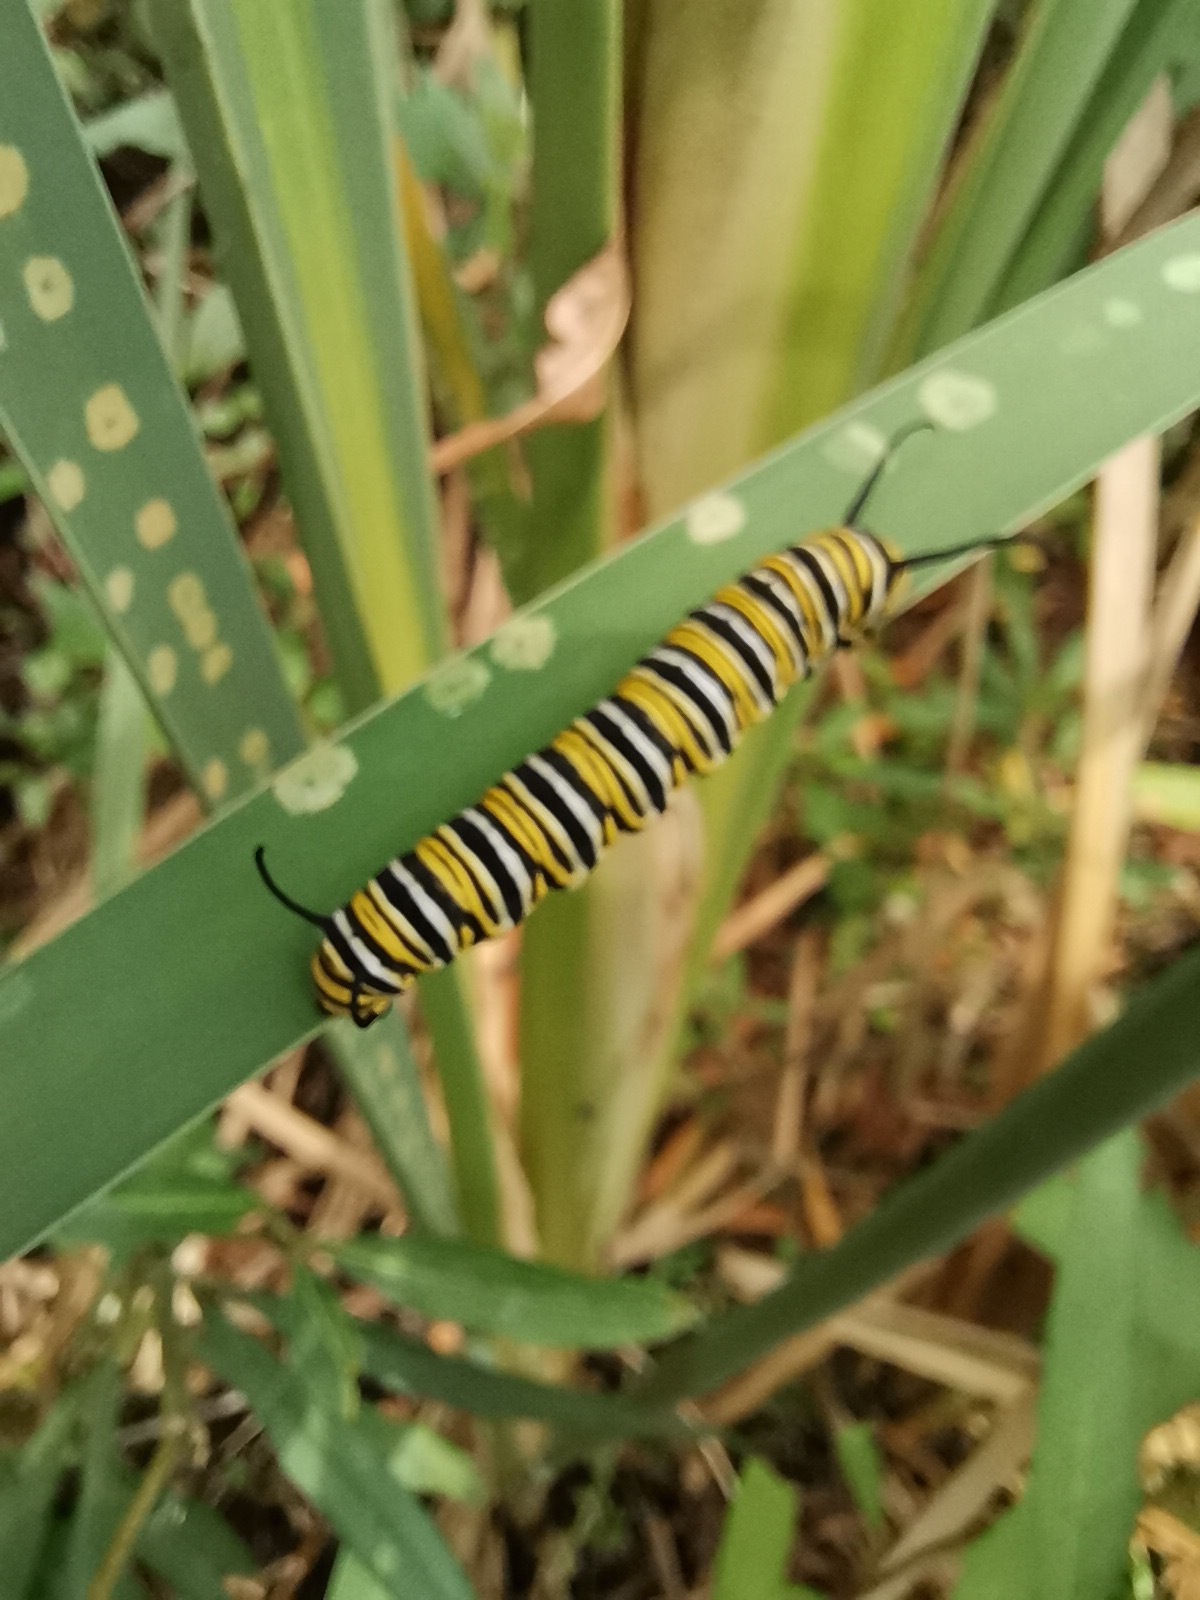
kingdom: Animalia
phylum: Arthropoda
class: Insecta
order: Lepidoptera
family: Nymphalidae
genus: Danaus
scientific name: Danaus plexippus
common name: Monarch
